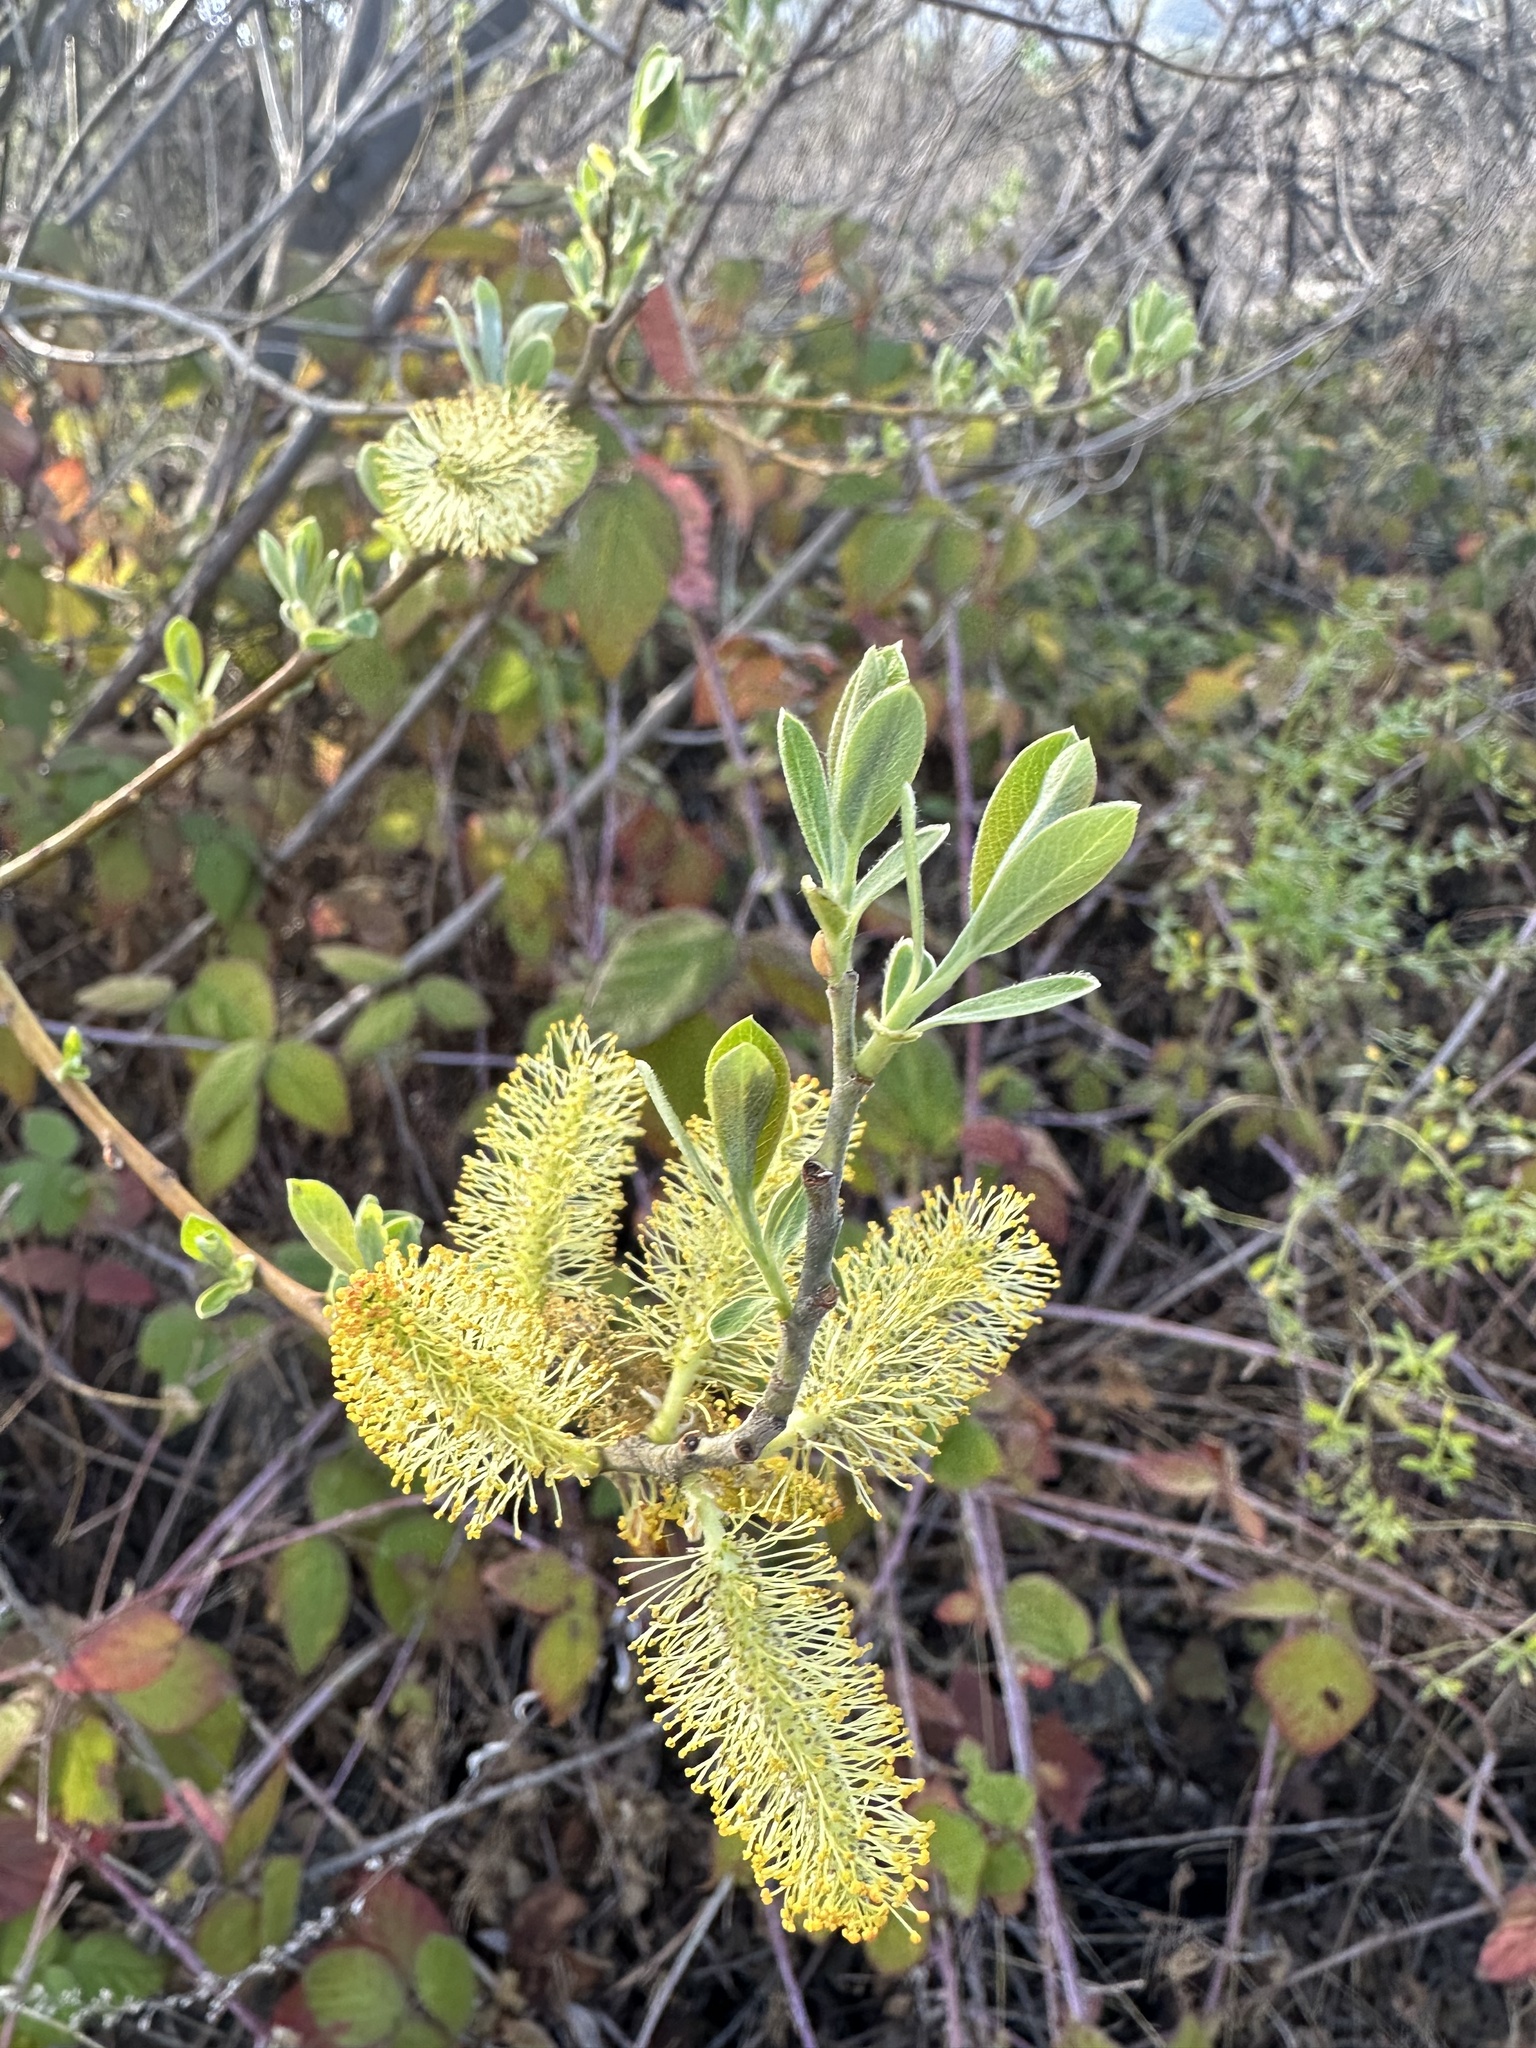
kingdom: Plantae
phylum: Tracheophyta
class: Magnoliopsida
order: Malpighiales
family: Salicaceae
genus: Salix
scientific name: Salix lasiolepis
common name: Arroyo willow
